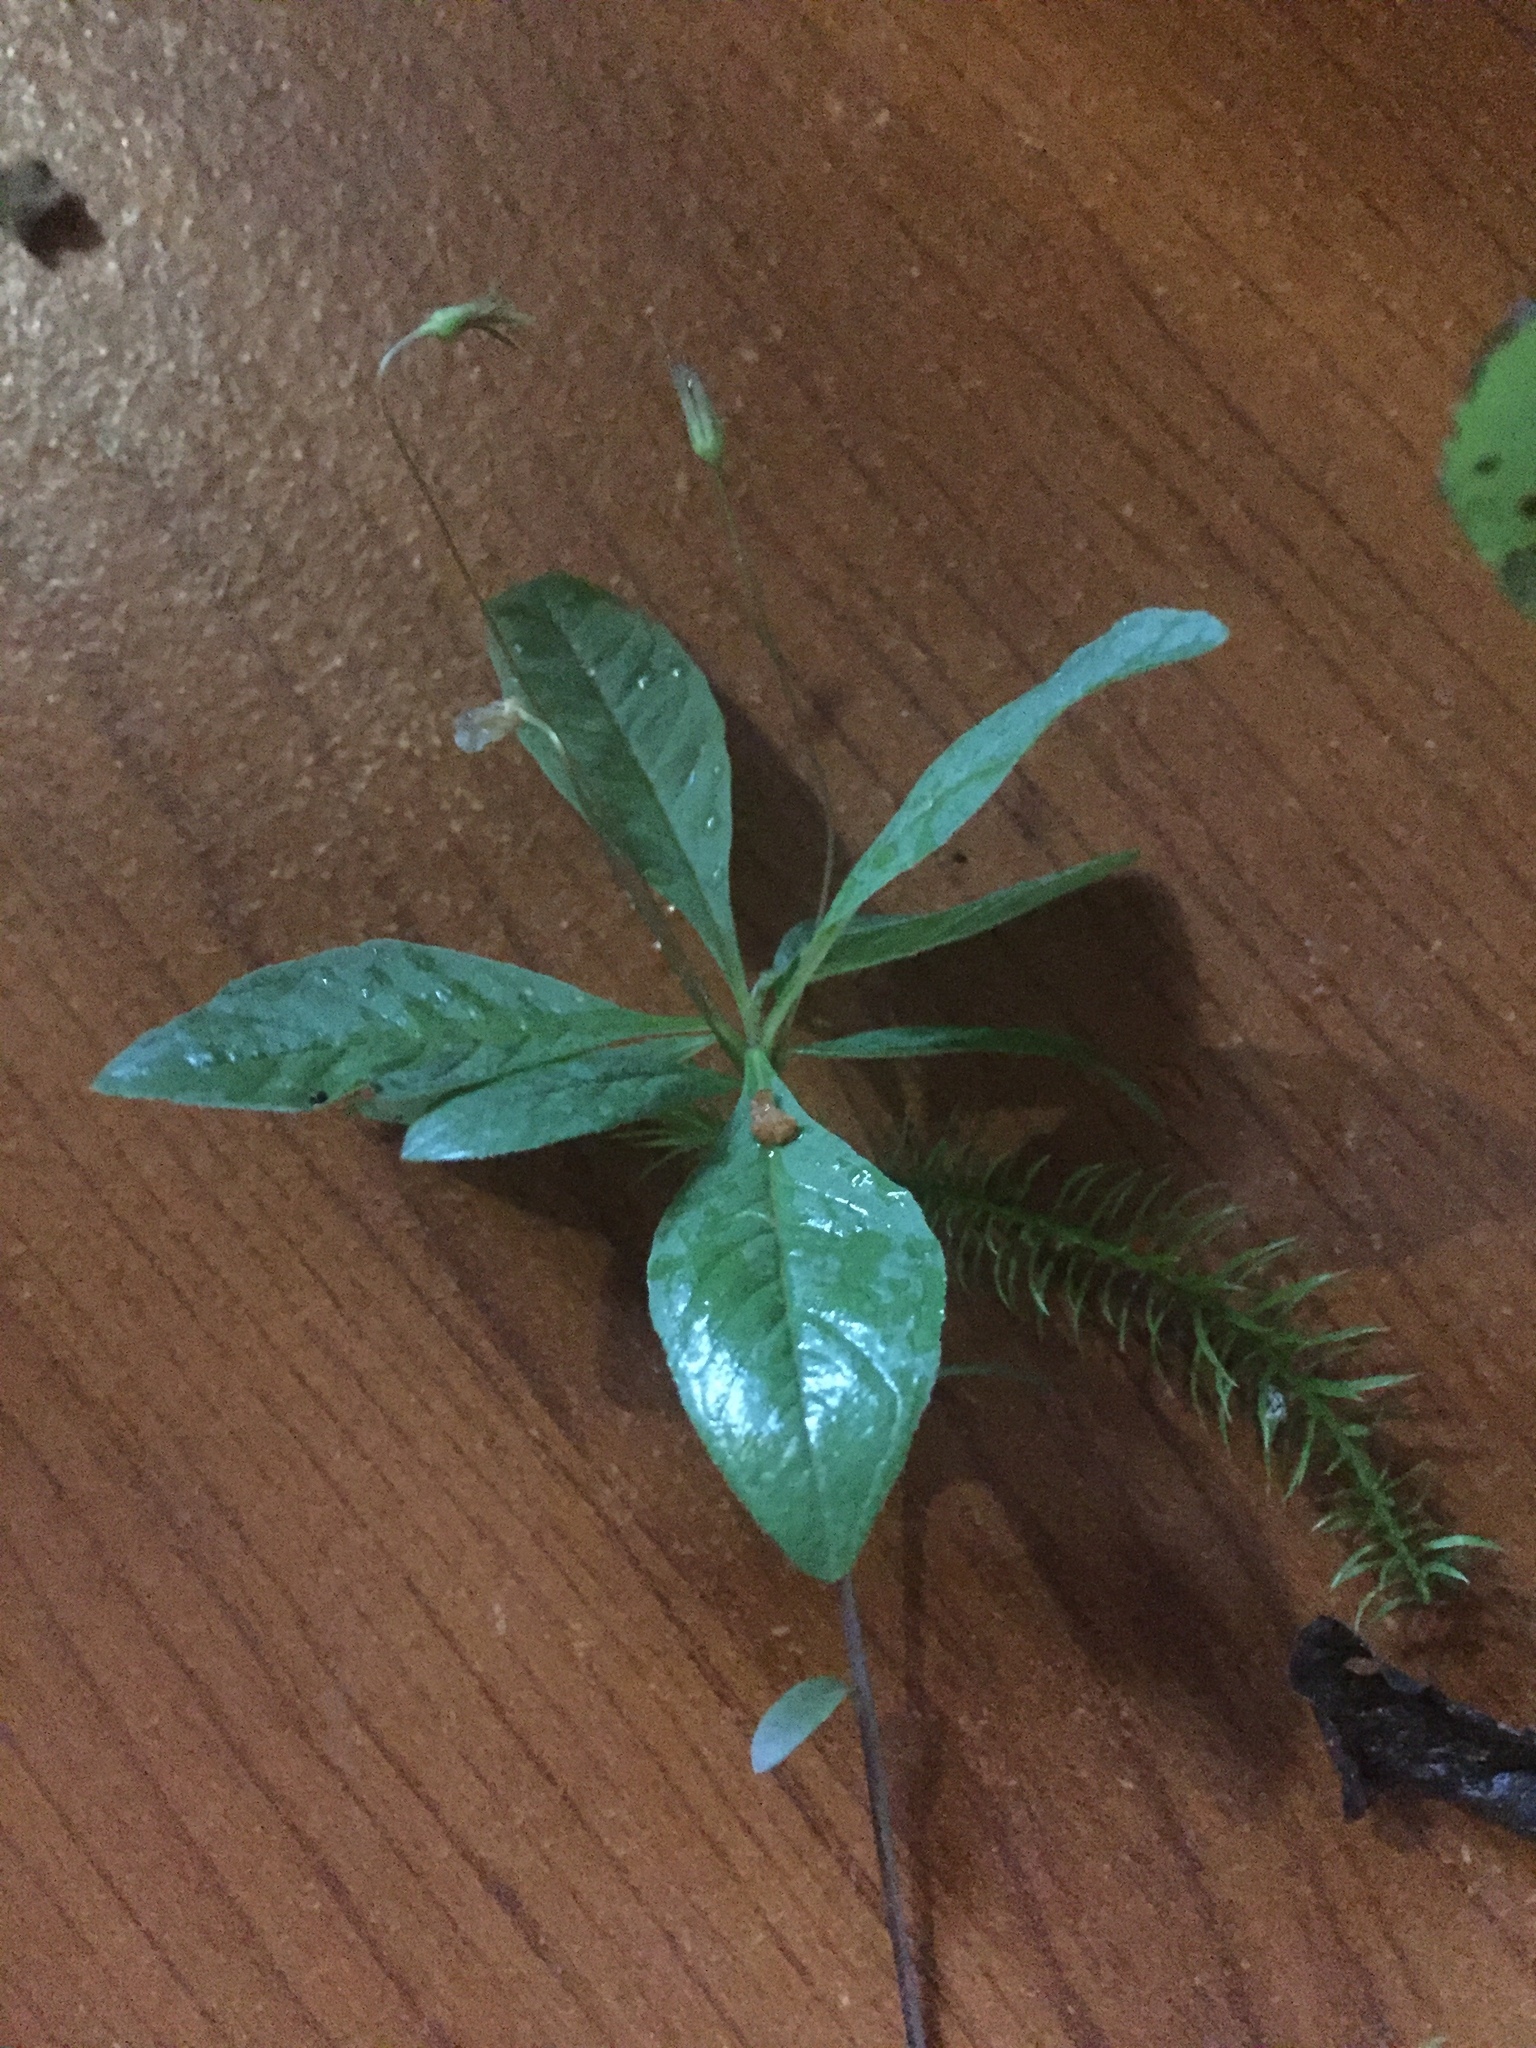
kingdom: Plantae
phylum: Tracheophyta
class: Magnoliopsida
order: Ericales
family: Primulaceae
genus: Lysimachia
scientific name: Lysimachia europaea
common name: Arctic starflower
